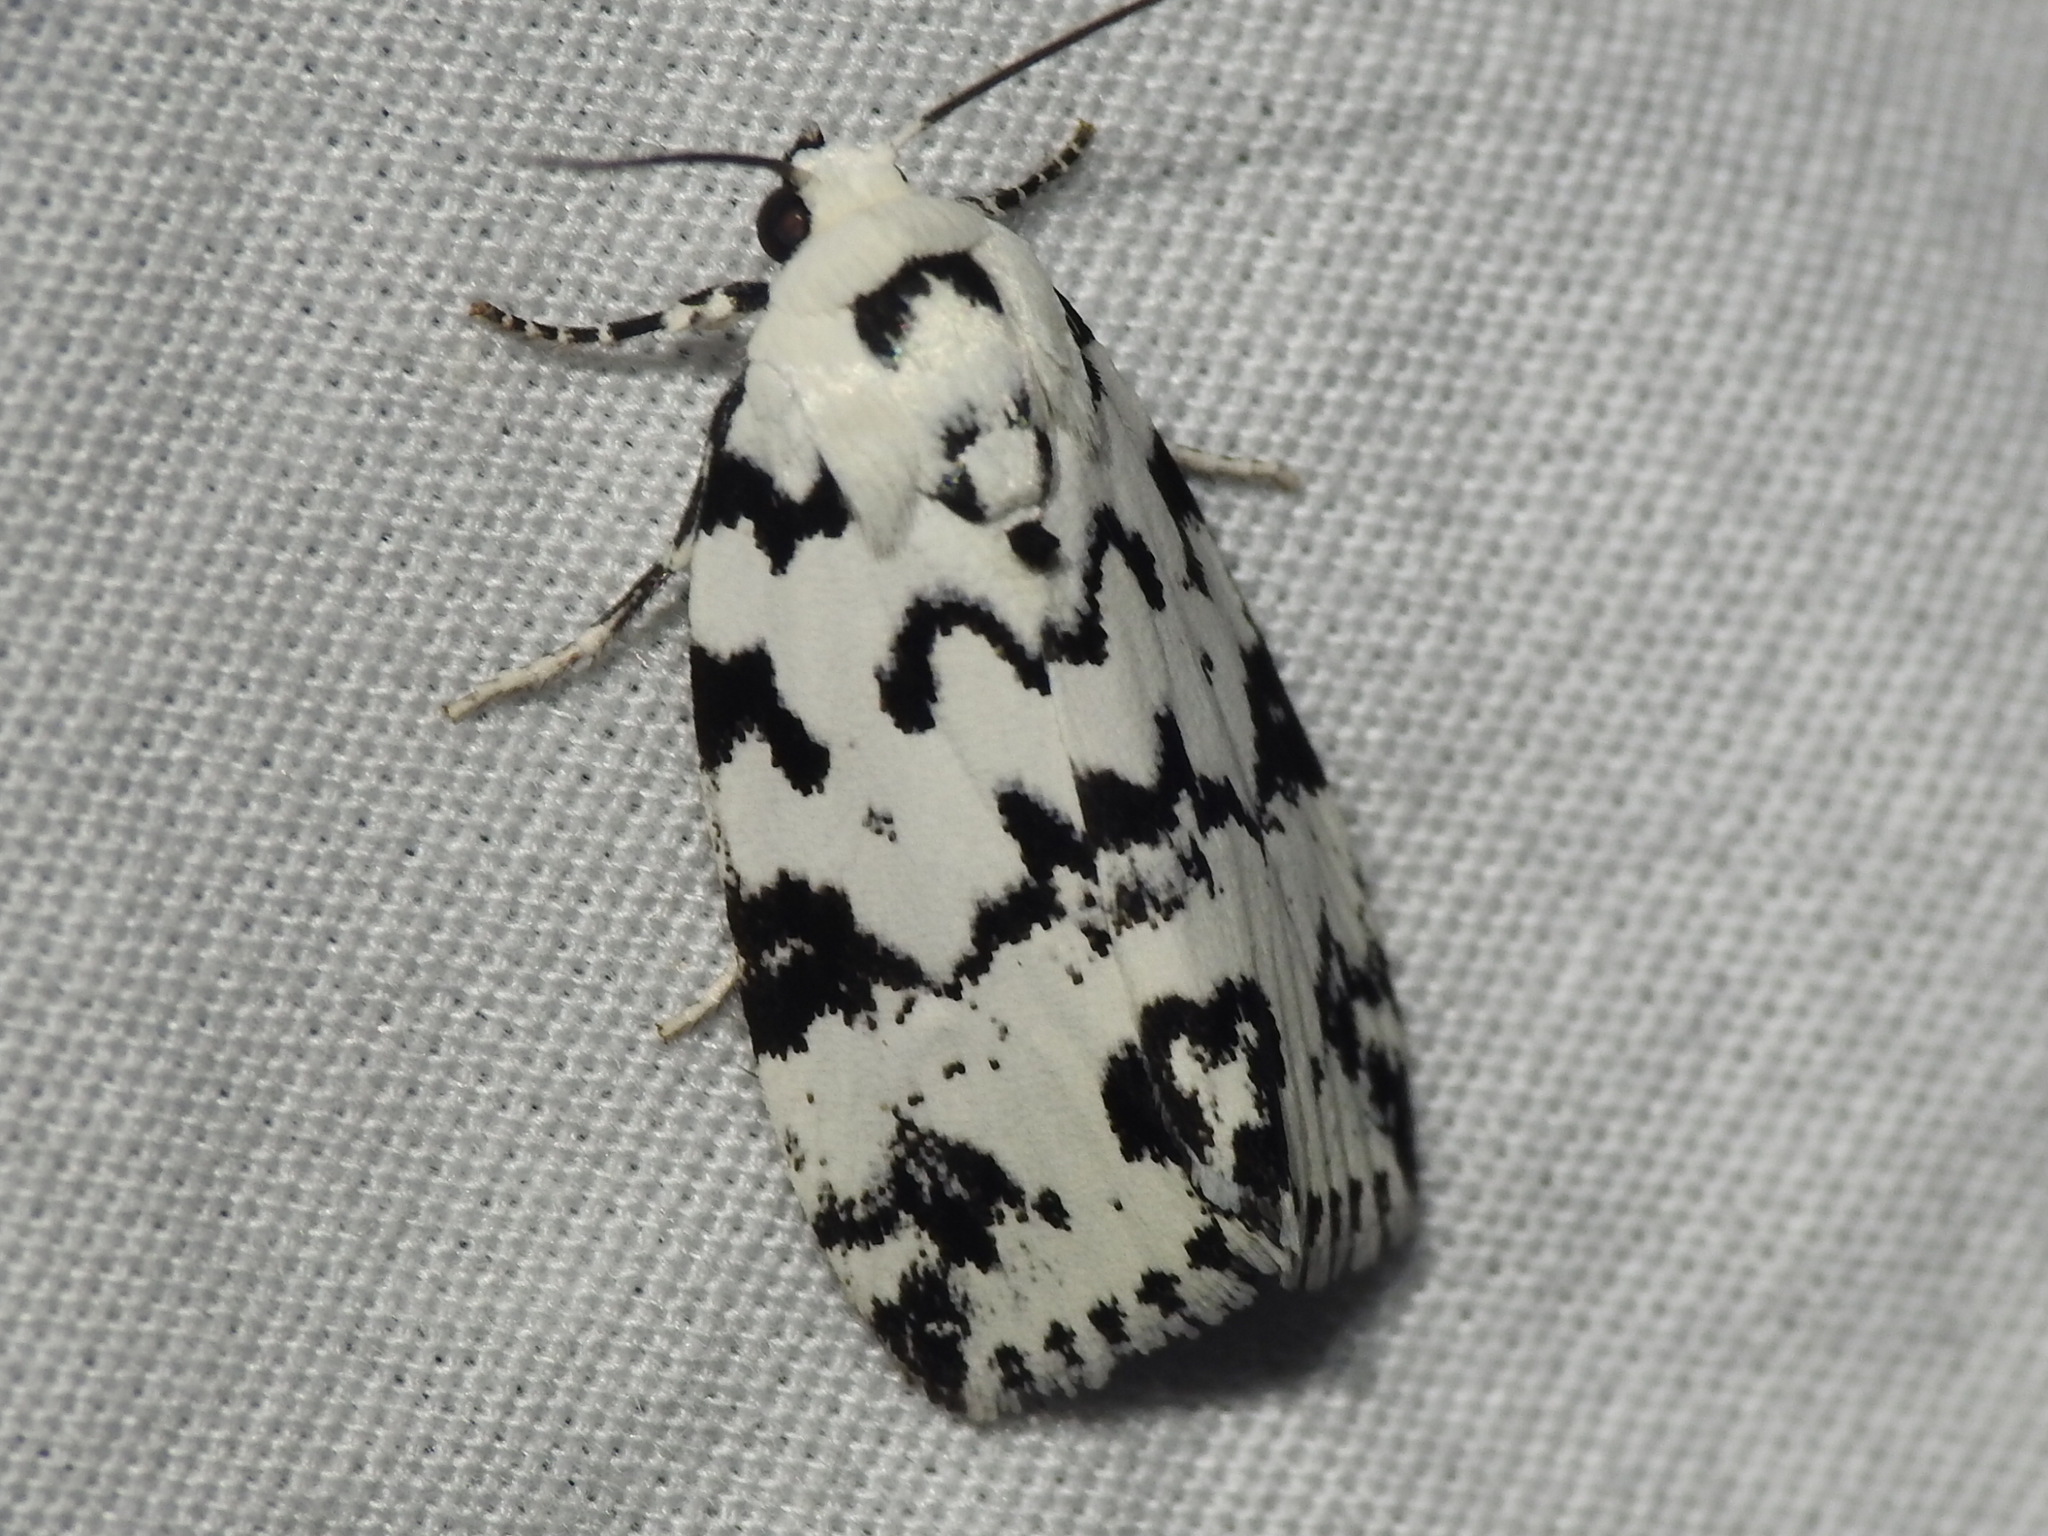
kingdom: Animalia
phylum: Arthropoda
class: Insecta
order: Lepidoptera
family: Noctuidae
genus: Polygrammate
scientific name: Polygrammate hebraeicum
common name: Hebrew moth
